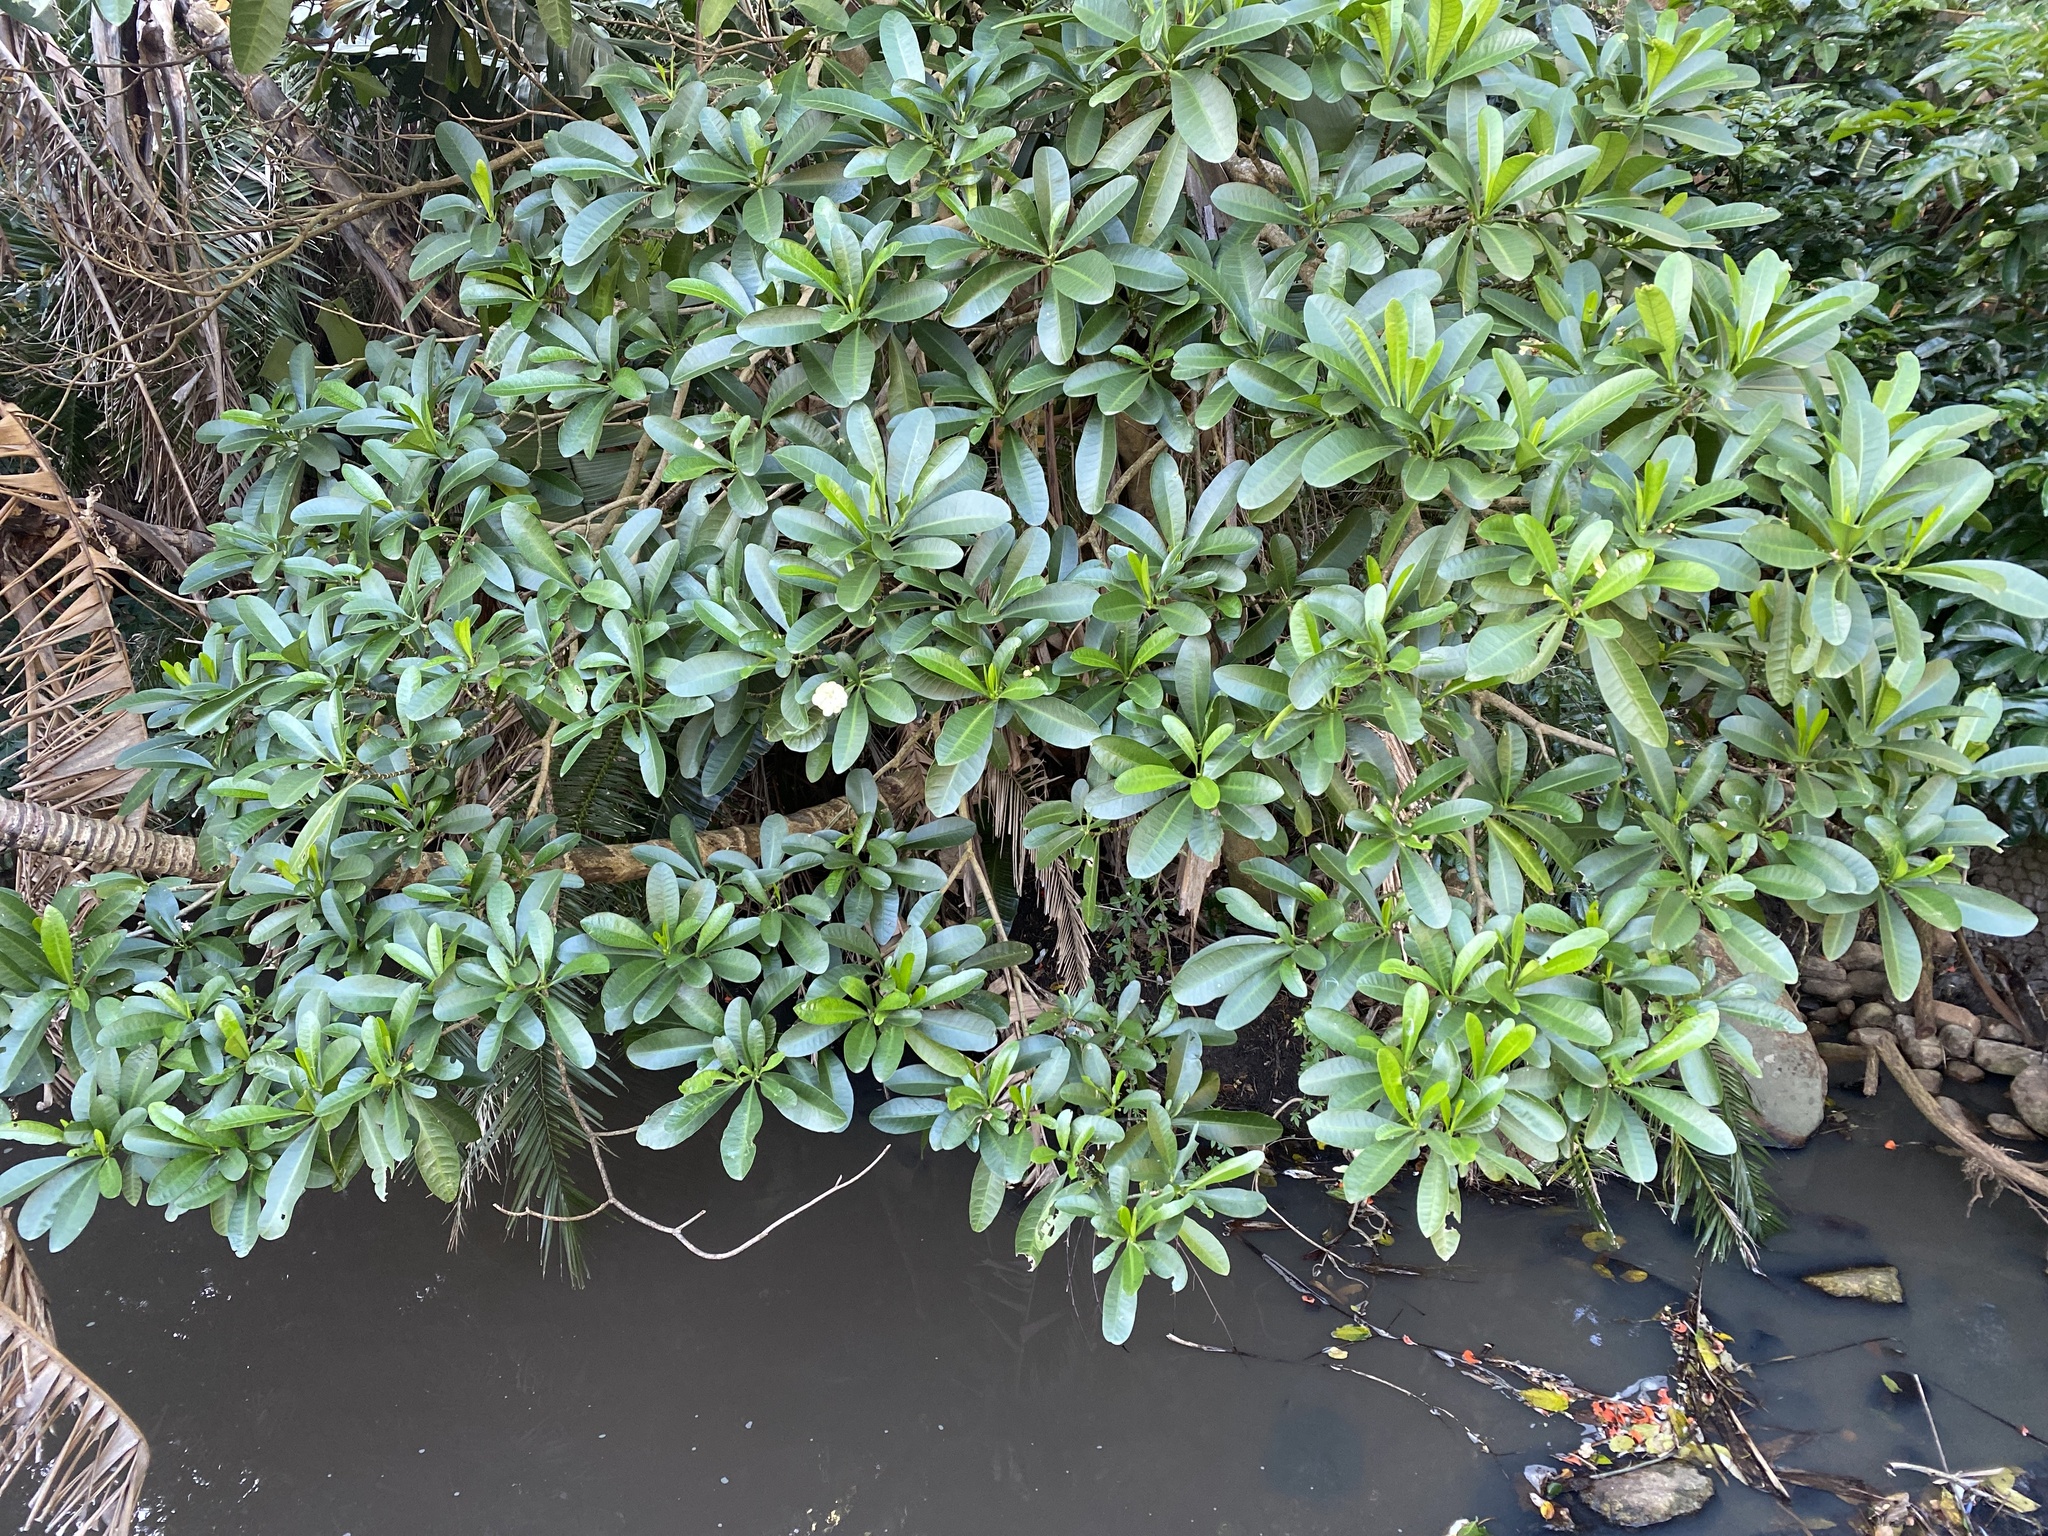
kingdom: Plantae
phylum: Tracheophyta
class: Magnoliopsida
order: Gentianales
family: Apocynaceae
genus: Voacanga
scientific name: Voacanga thouarsii
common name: Wild frangipani
